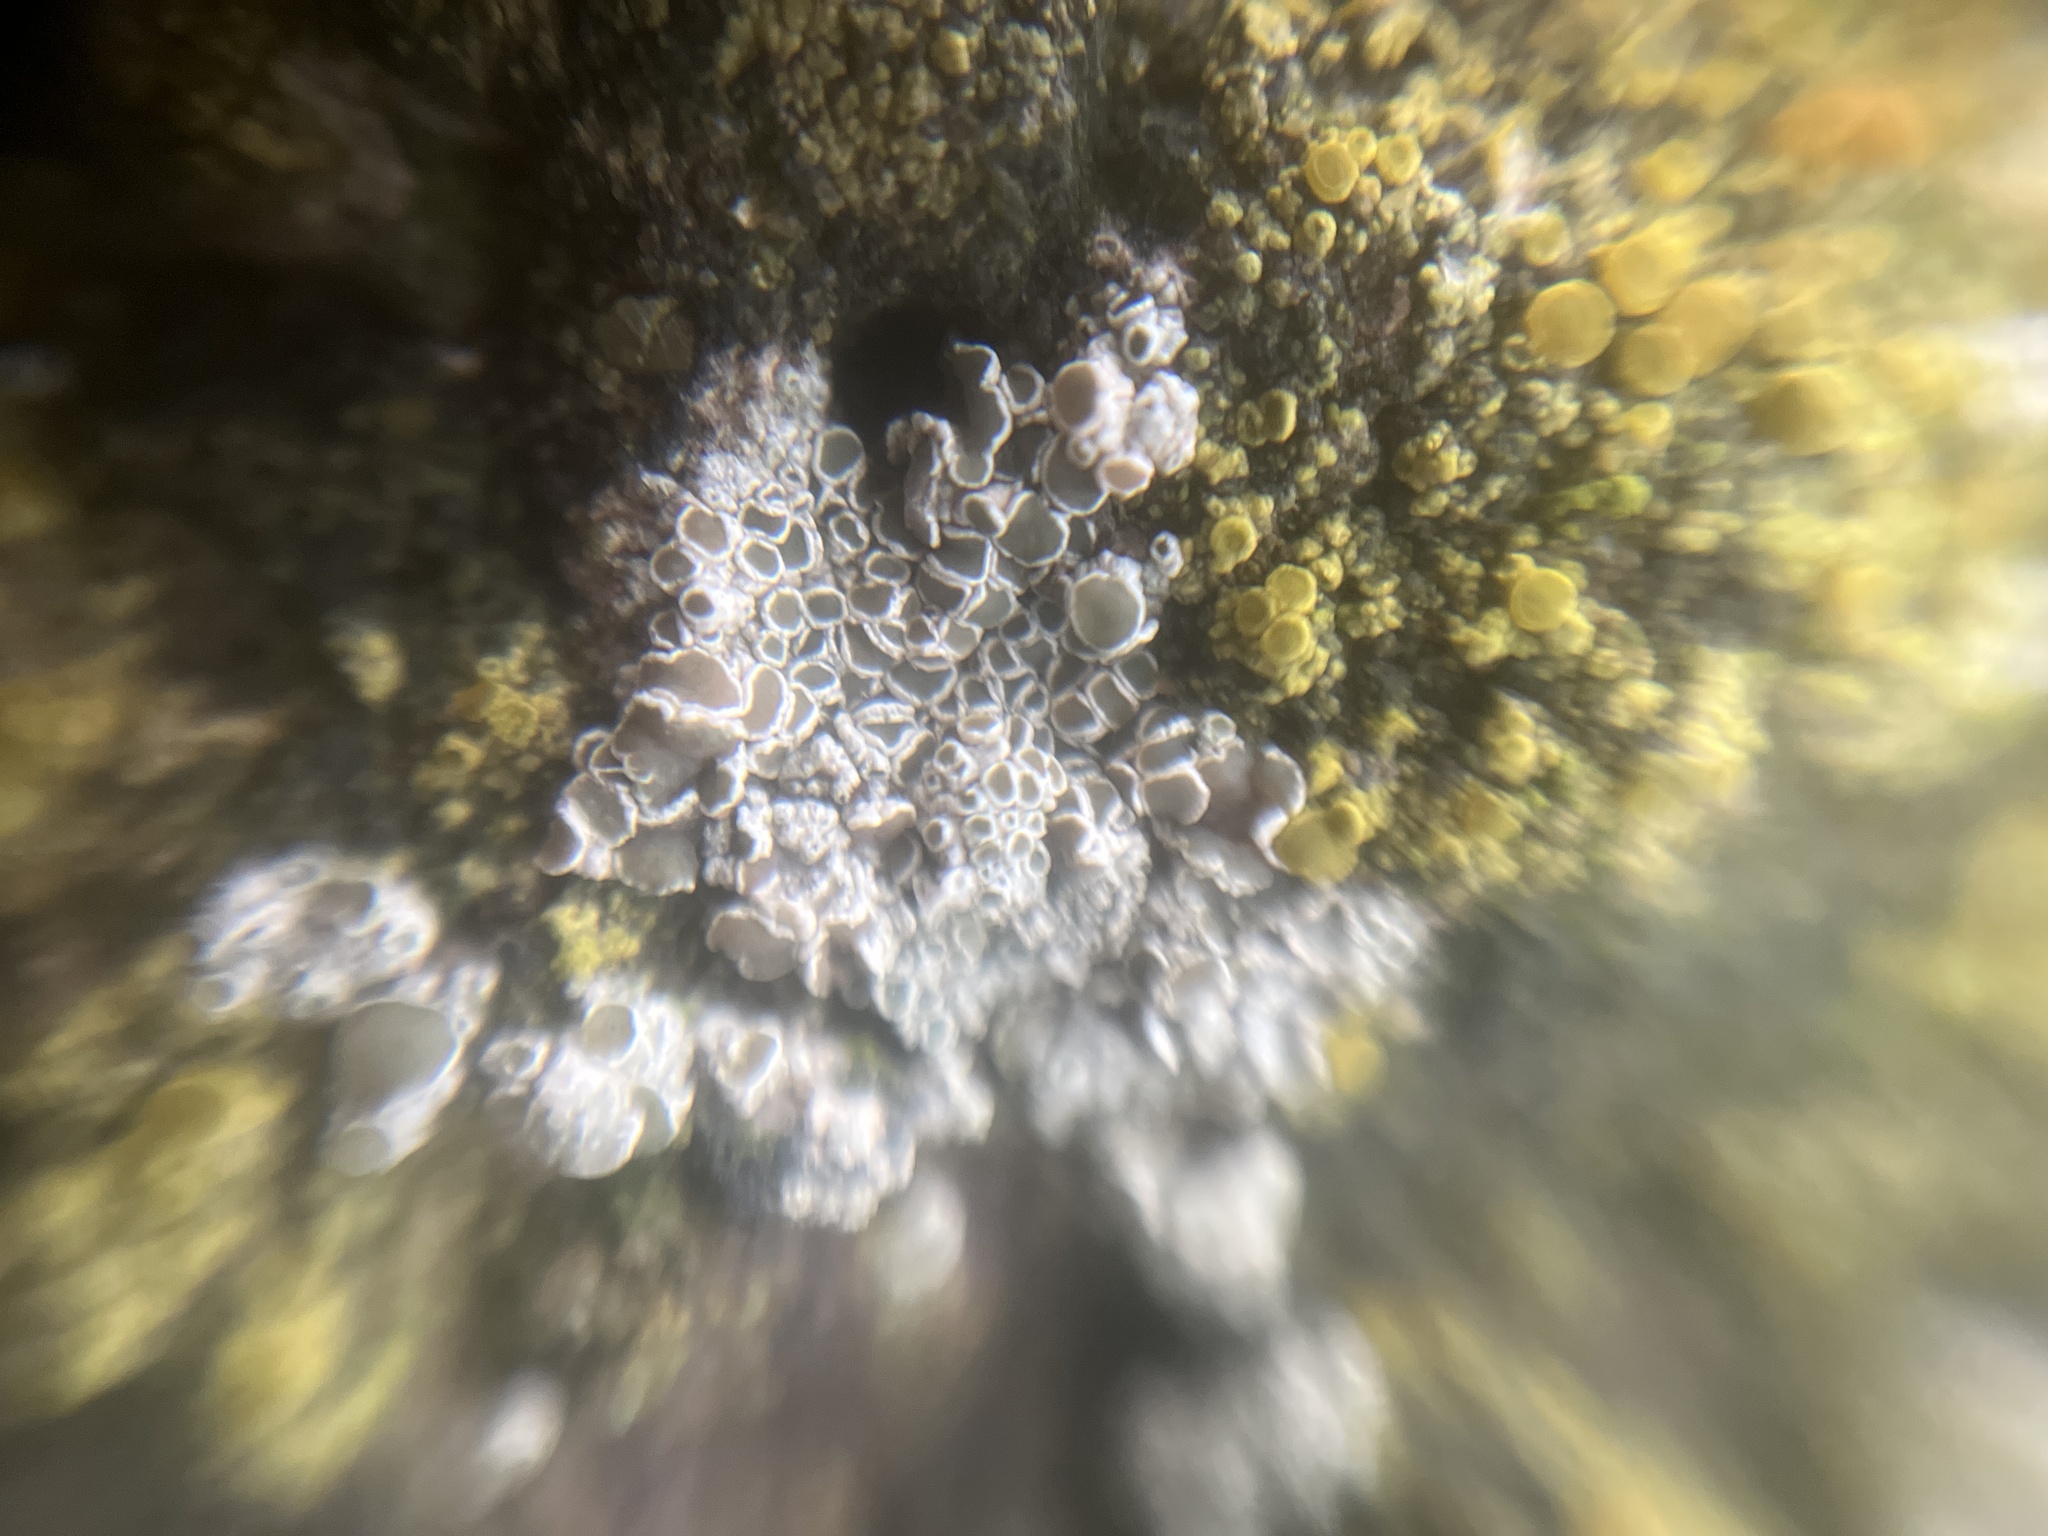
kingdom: Fungi
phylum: Ascomycota
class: Lecanoromycetes
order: Lecanorales
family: Lecanoraceae
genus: Polyozosia
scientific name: Polyozosia albescens
